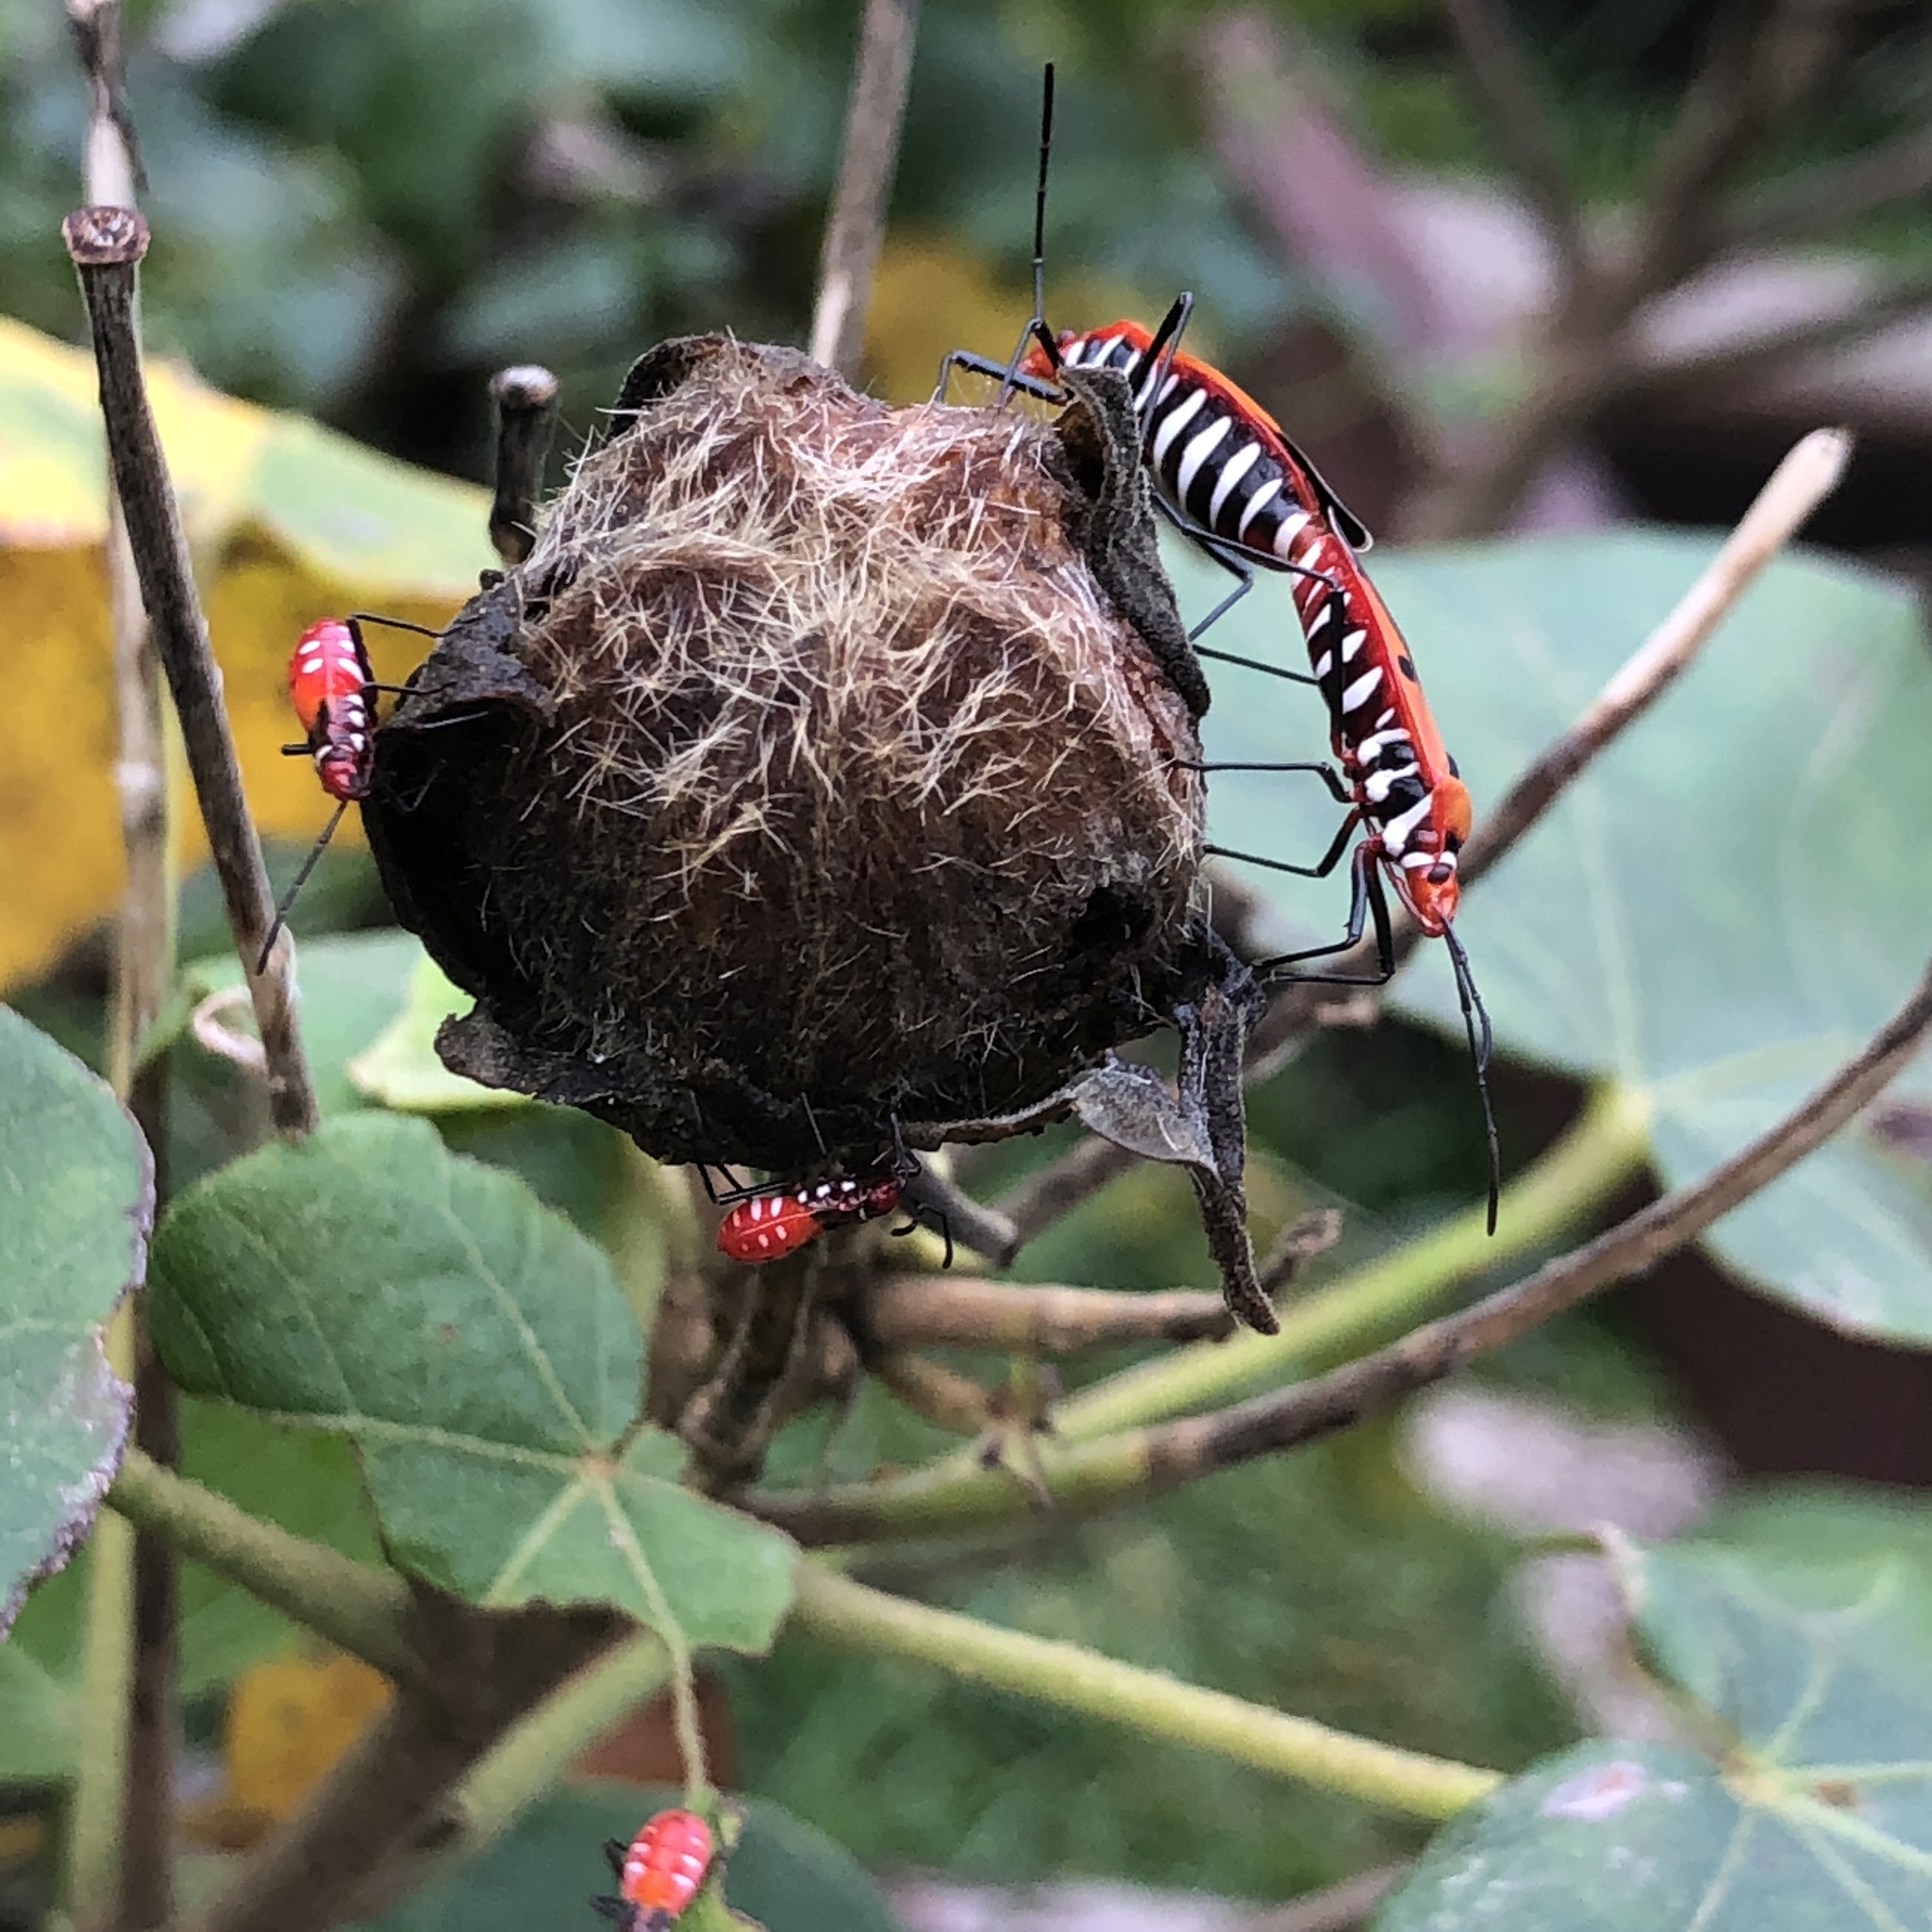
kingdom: Animalia
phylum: Arthropoda
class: Insecta
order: Hemiptera
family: Pyrrhocoridae
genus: Dysdercus
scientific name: Dysdercus cingulatus
